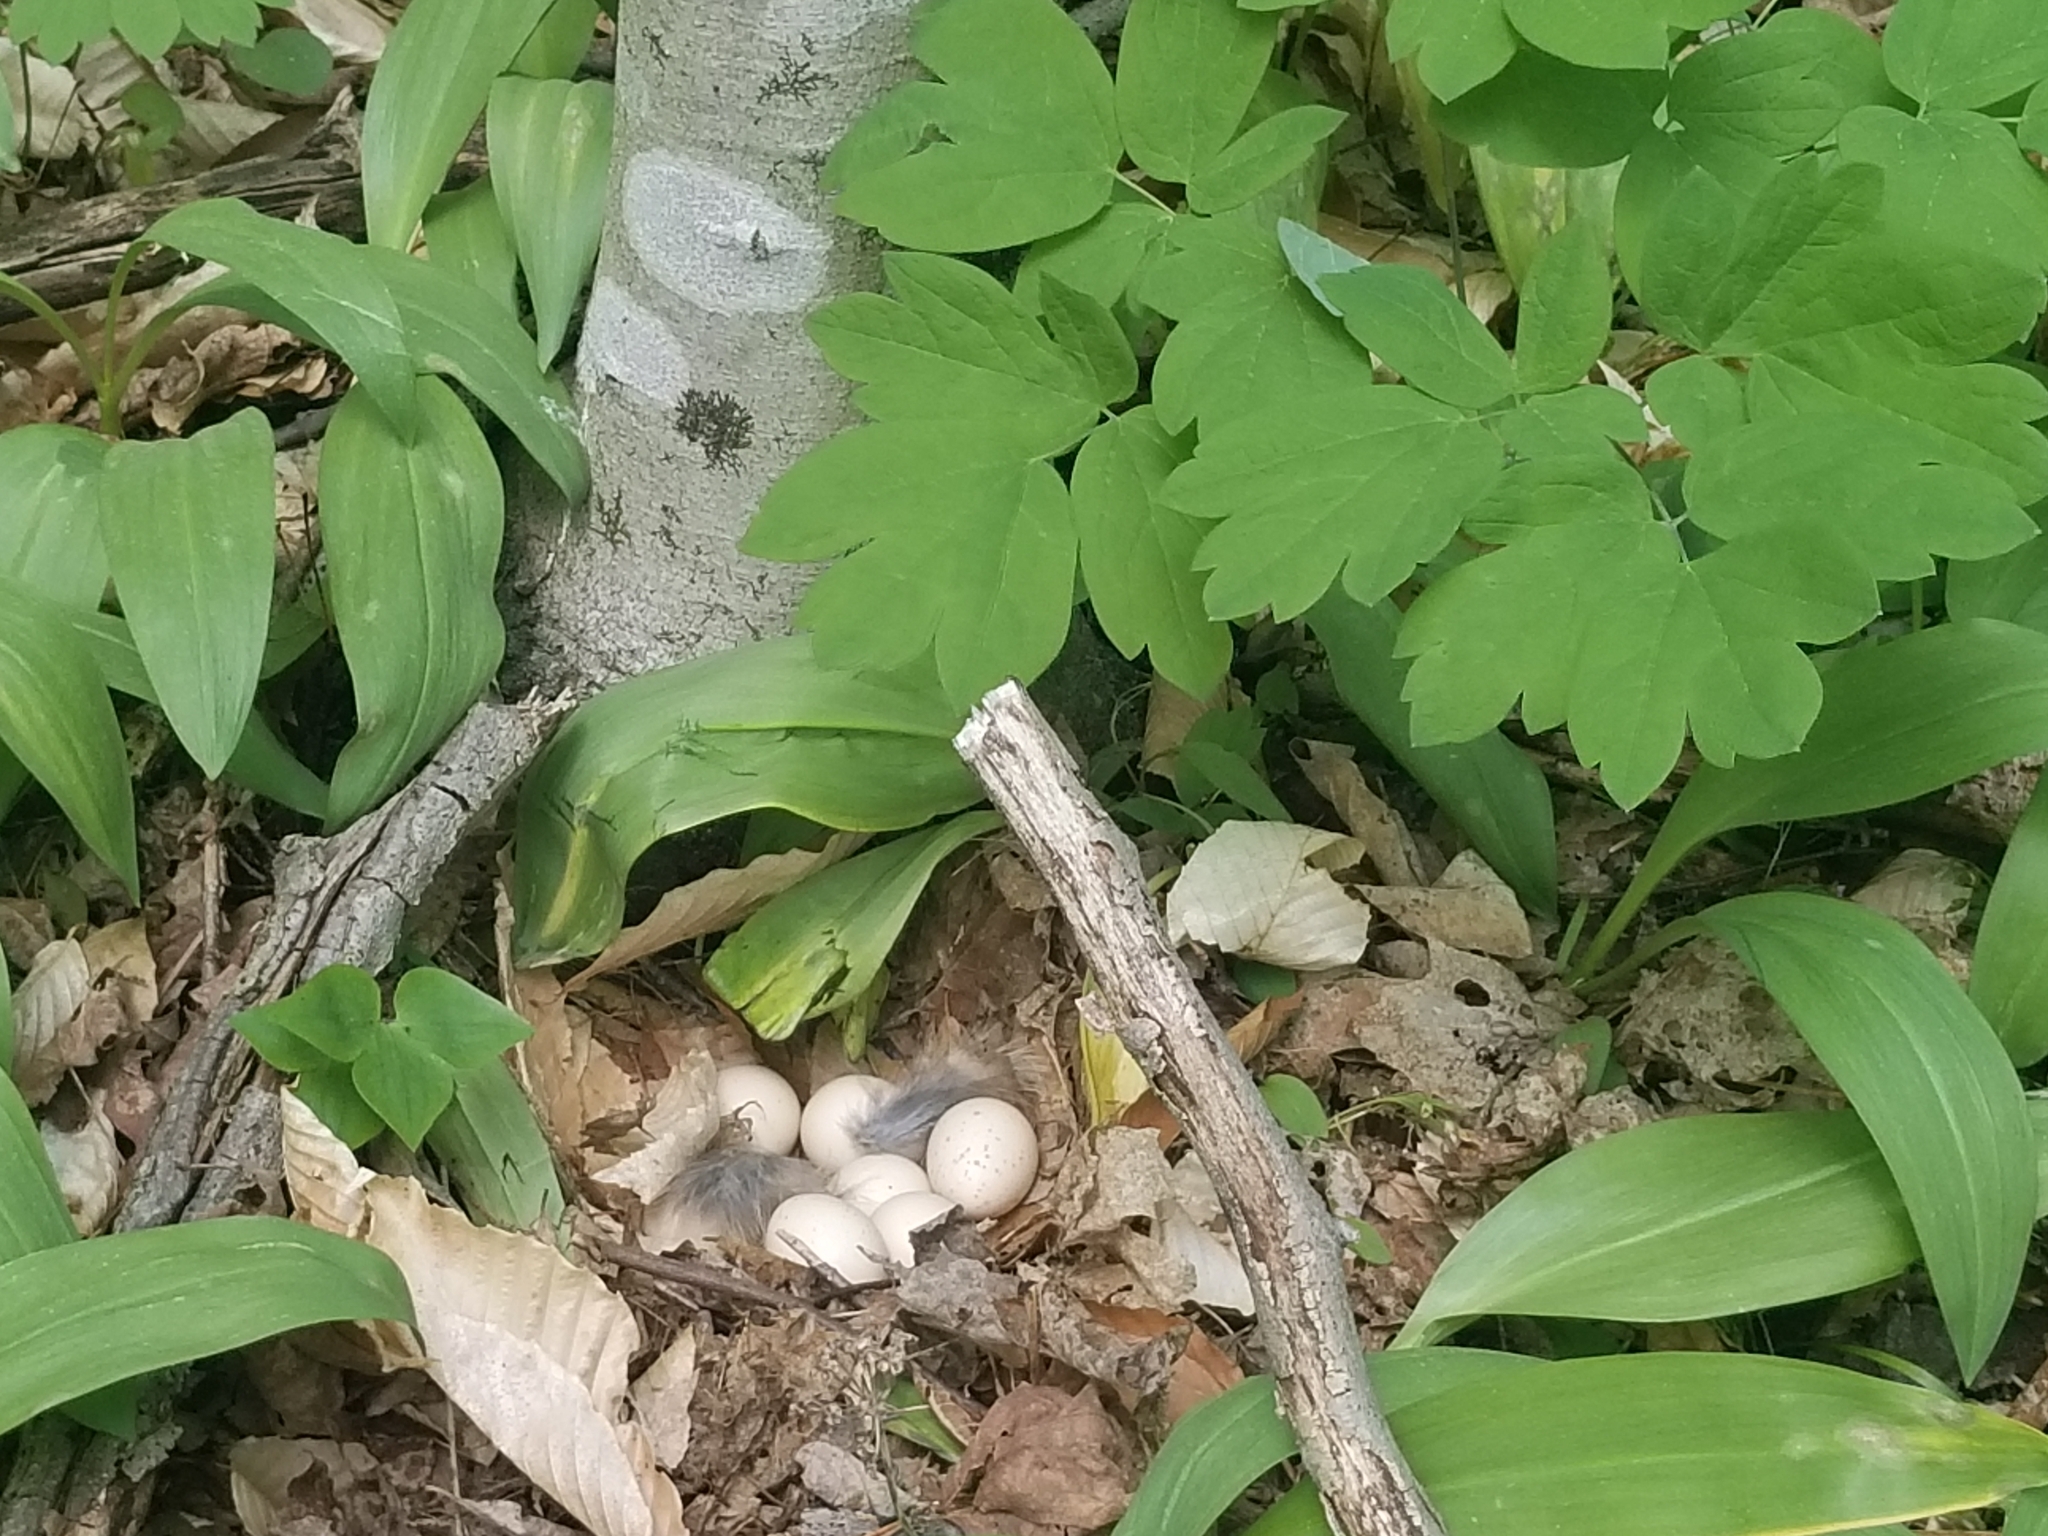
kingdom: Animalia
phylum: Chordata
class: Aves
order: Galliformes
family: Phasianidae
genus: Bonasa
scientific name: Bonasa umbellus
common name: Ruffed grouse
